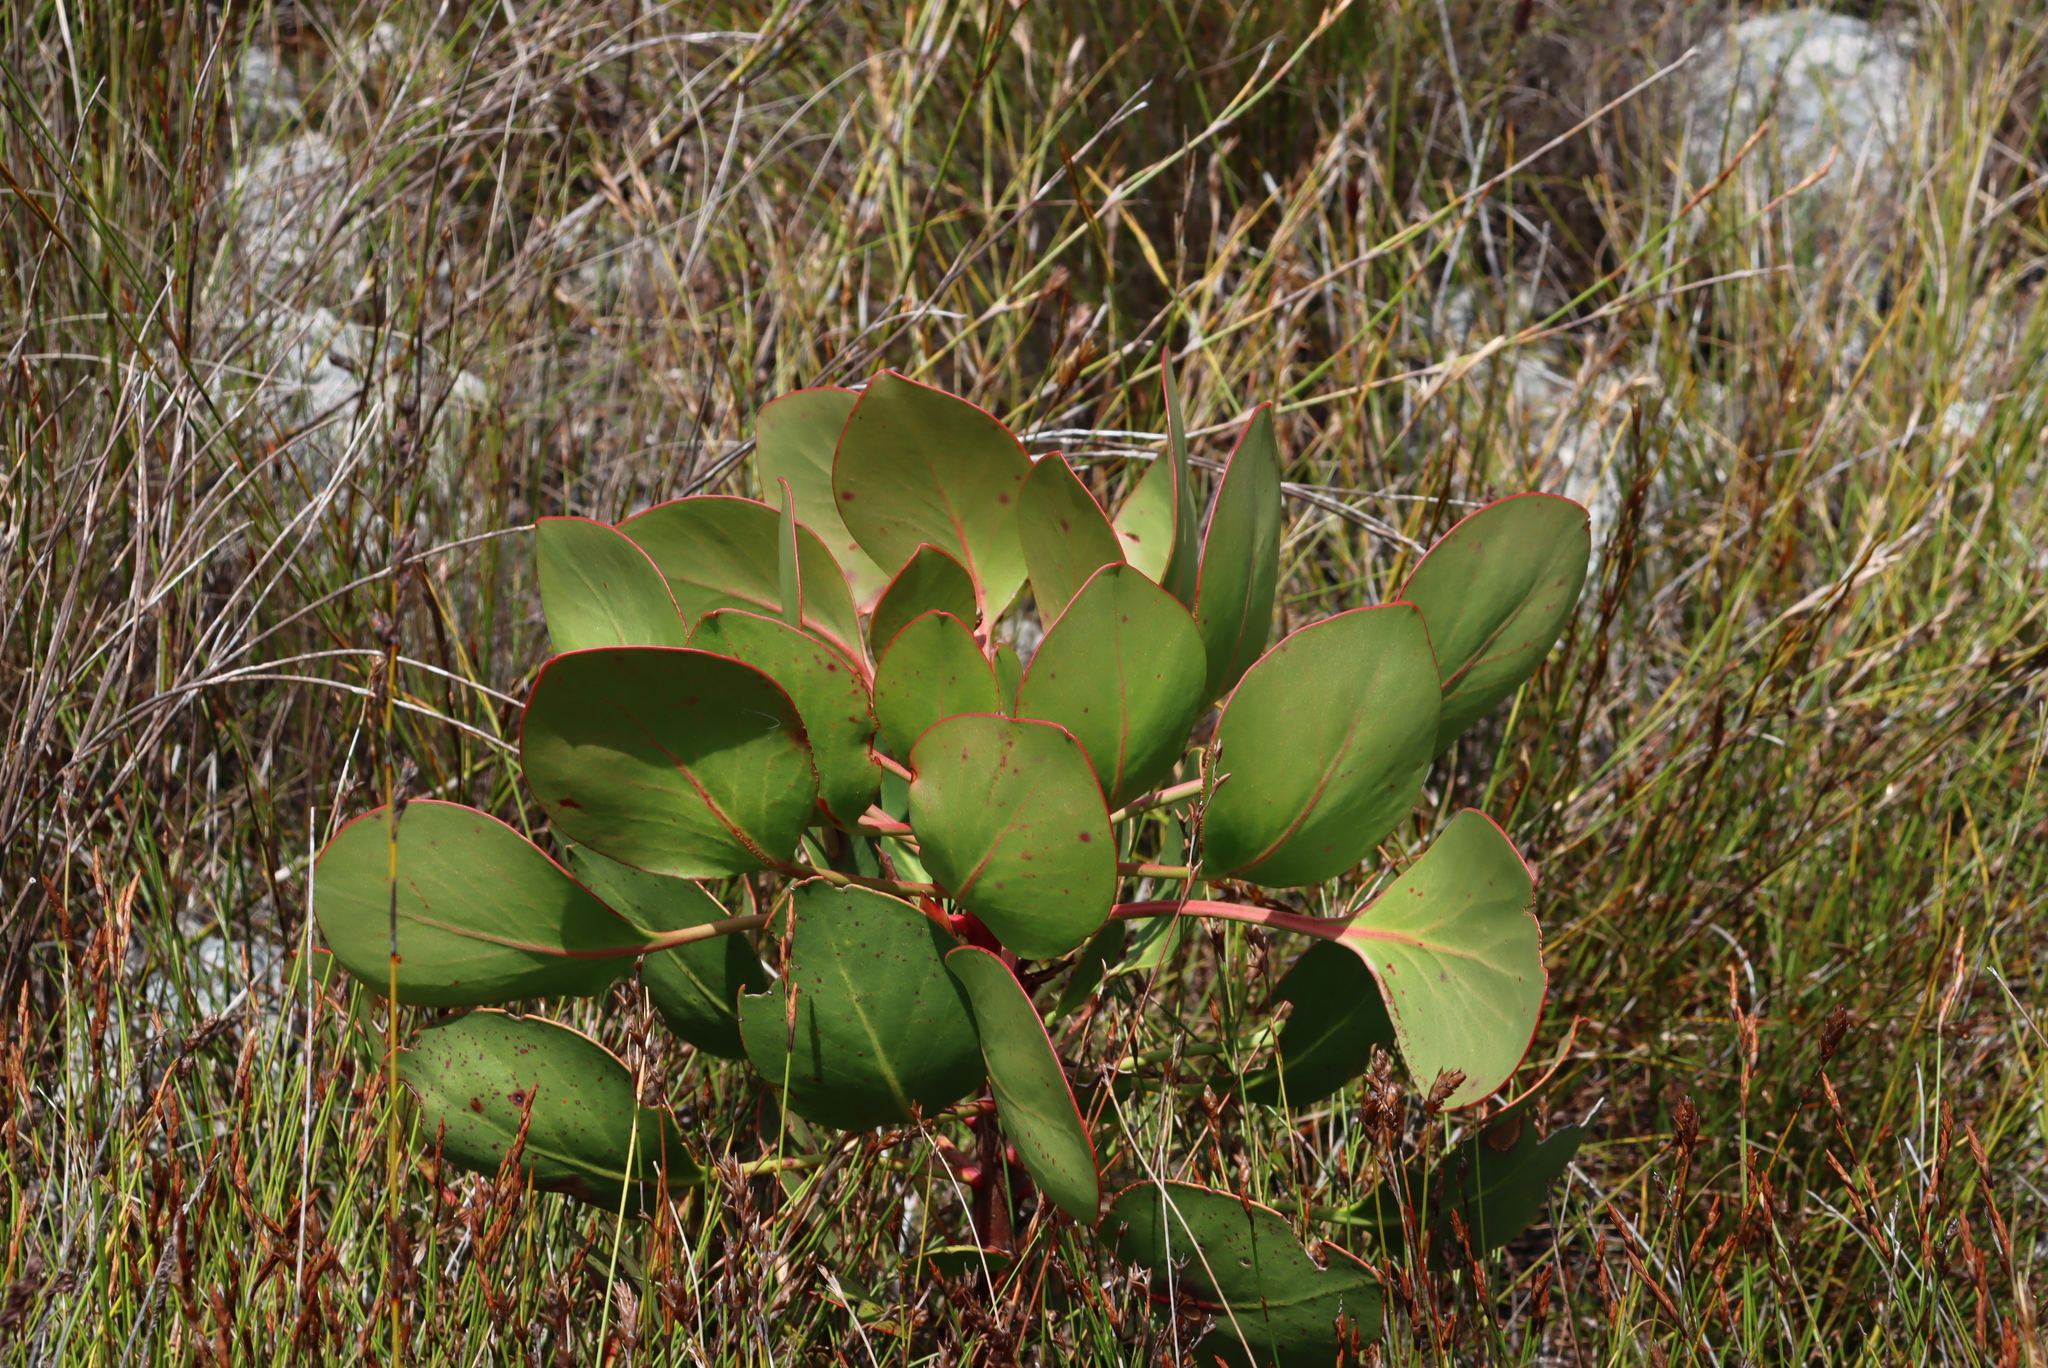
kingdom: Plantae
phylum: Tracheophyta
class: Magnoliopsida
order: Proteales
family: Proteaceae
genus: Protea
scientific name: Protea cynaroides
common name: King protea
